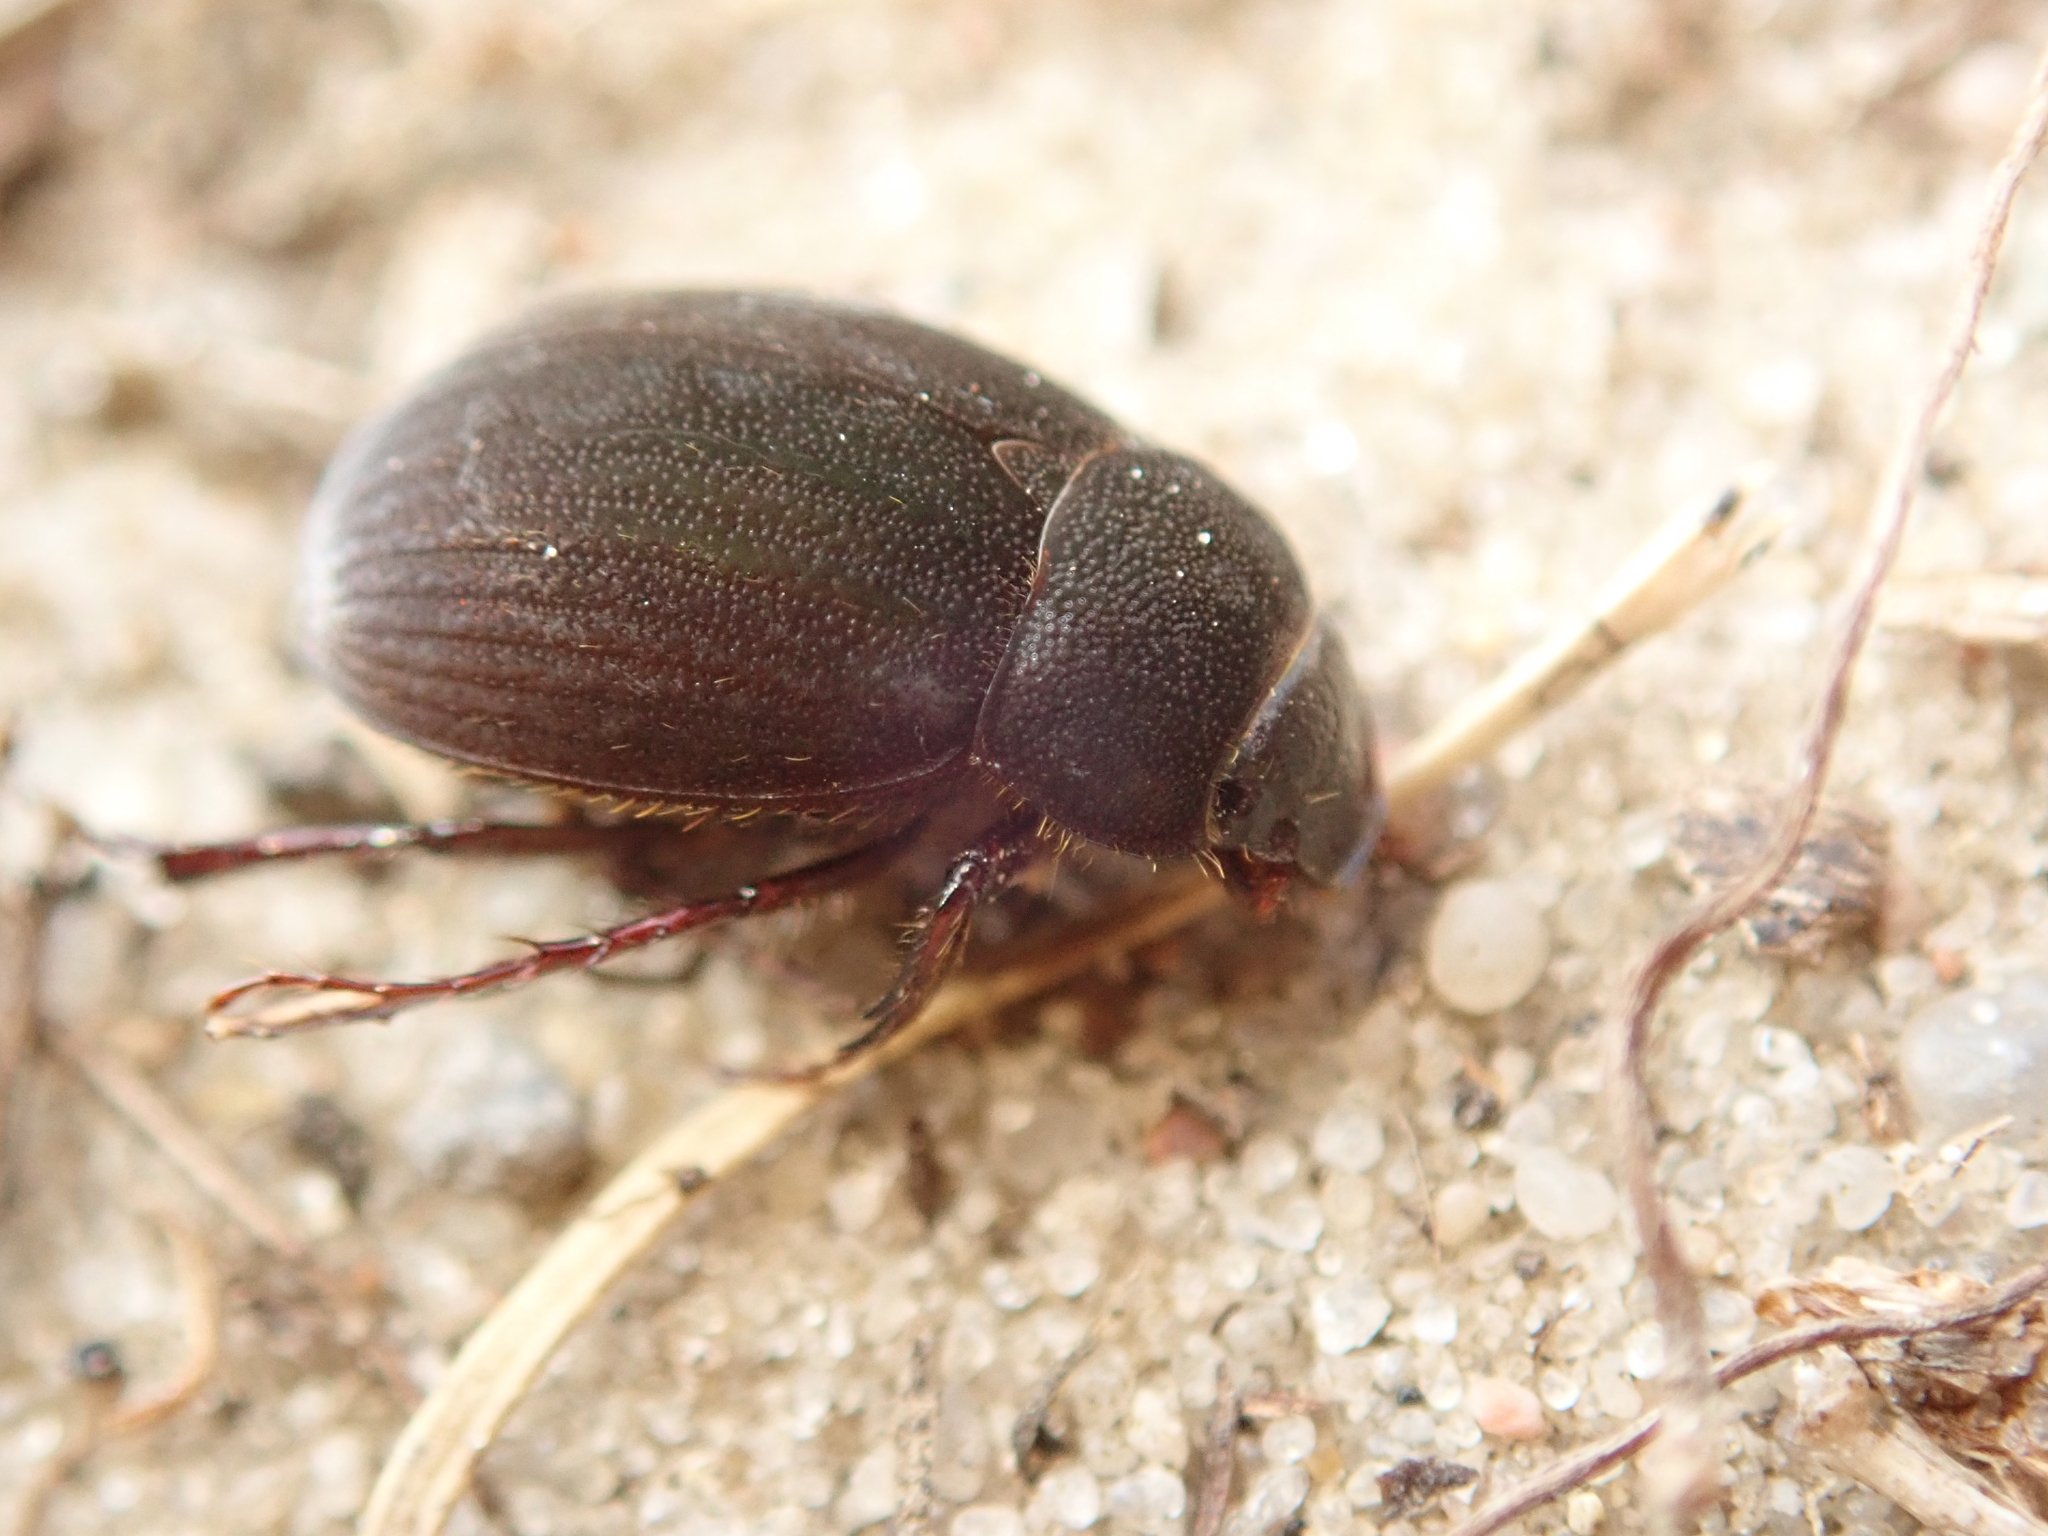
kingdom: Animalia
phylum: Arthropoda
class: Insecta
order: Coleoptera
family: Scarabaeidae
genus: Maladera
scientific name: Maladera holosericea
